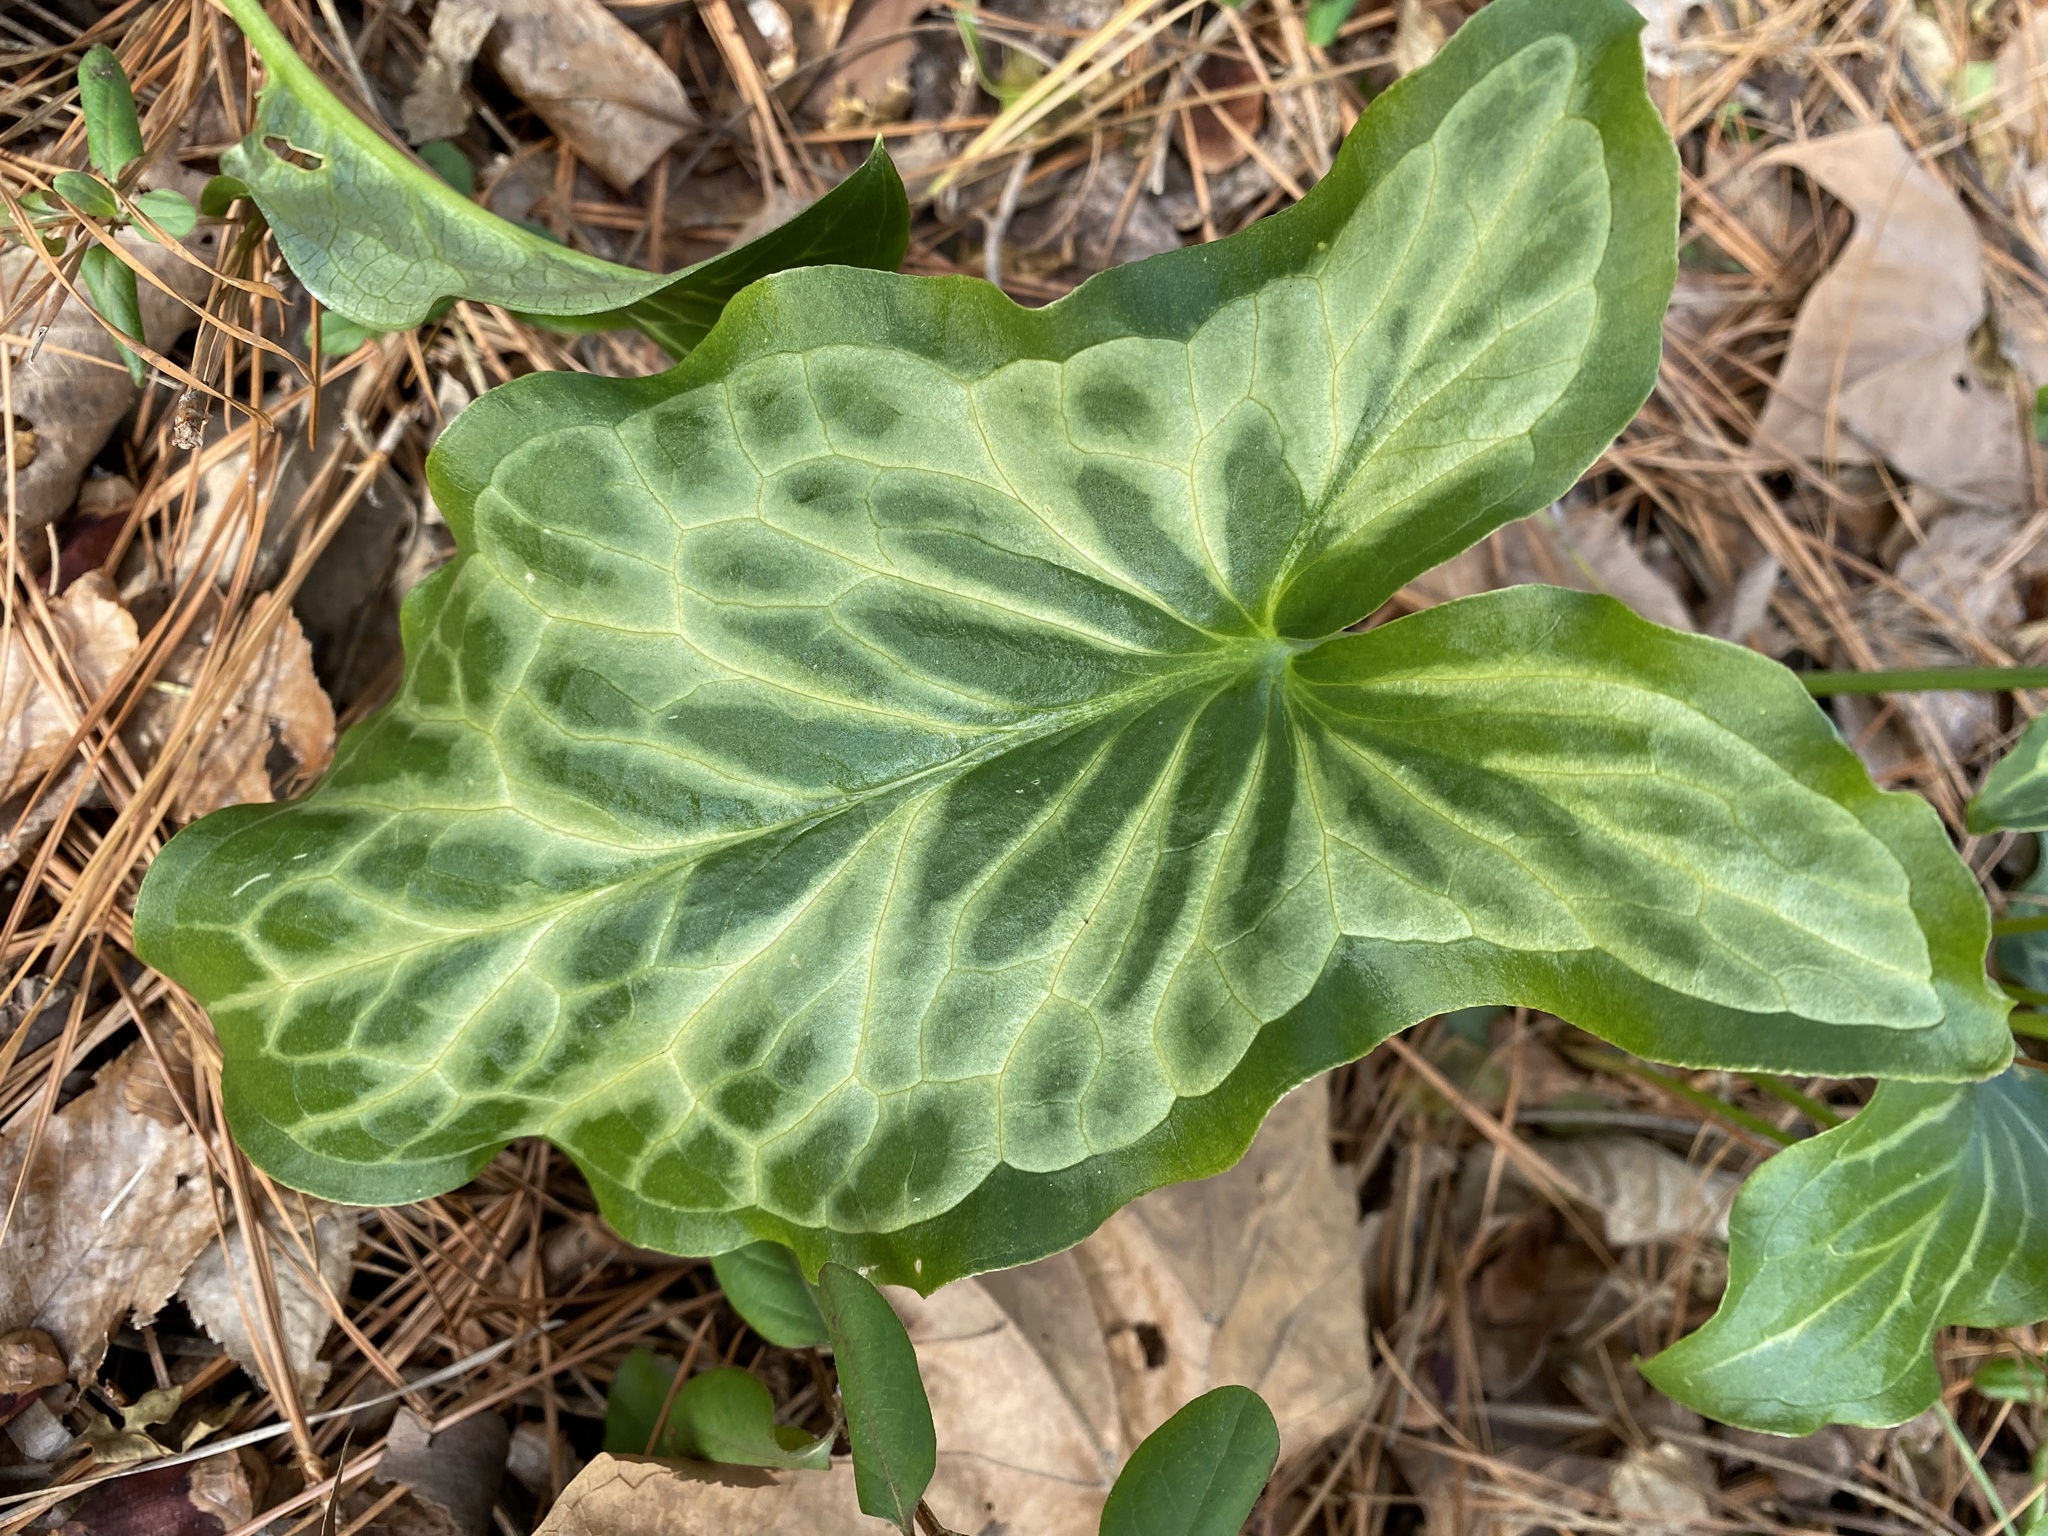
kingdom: Plantae
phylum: Tracheophyta
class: Liliopsida
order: Alismatales
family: Araceae
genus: Arum
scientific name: Arum italicum
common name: Italian lords-and-ladies
